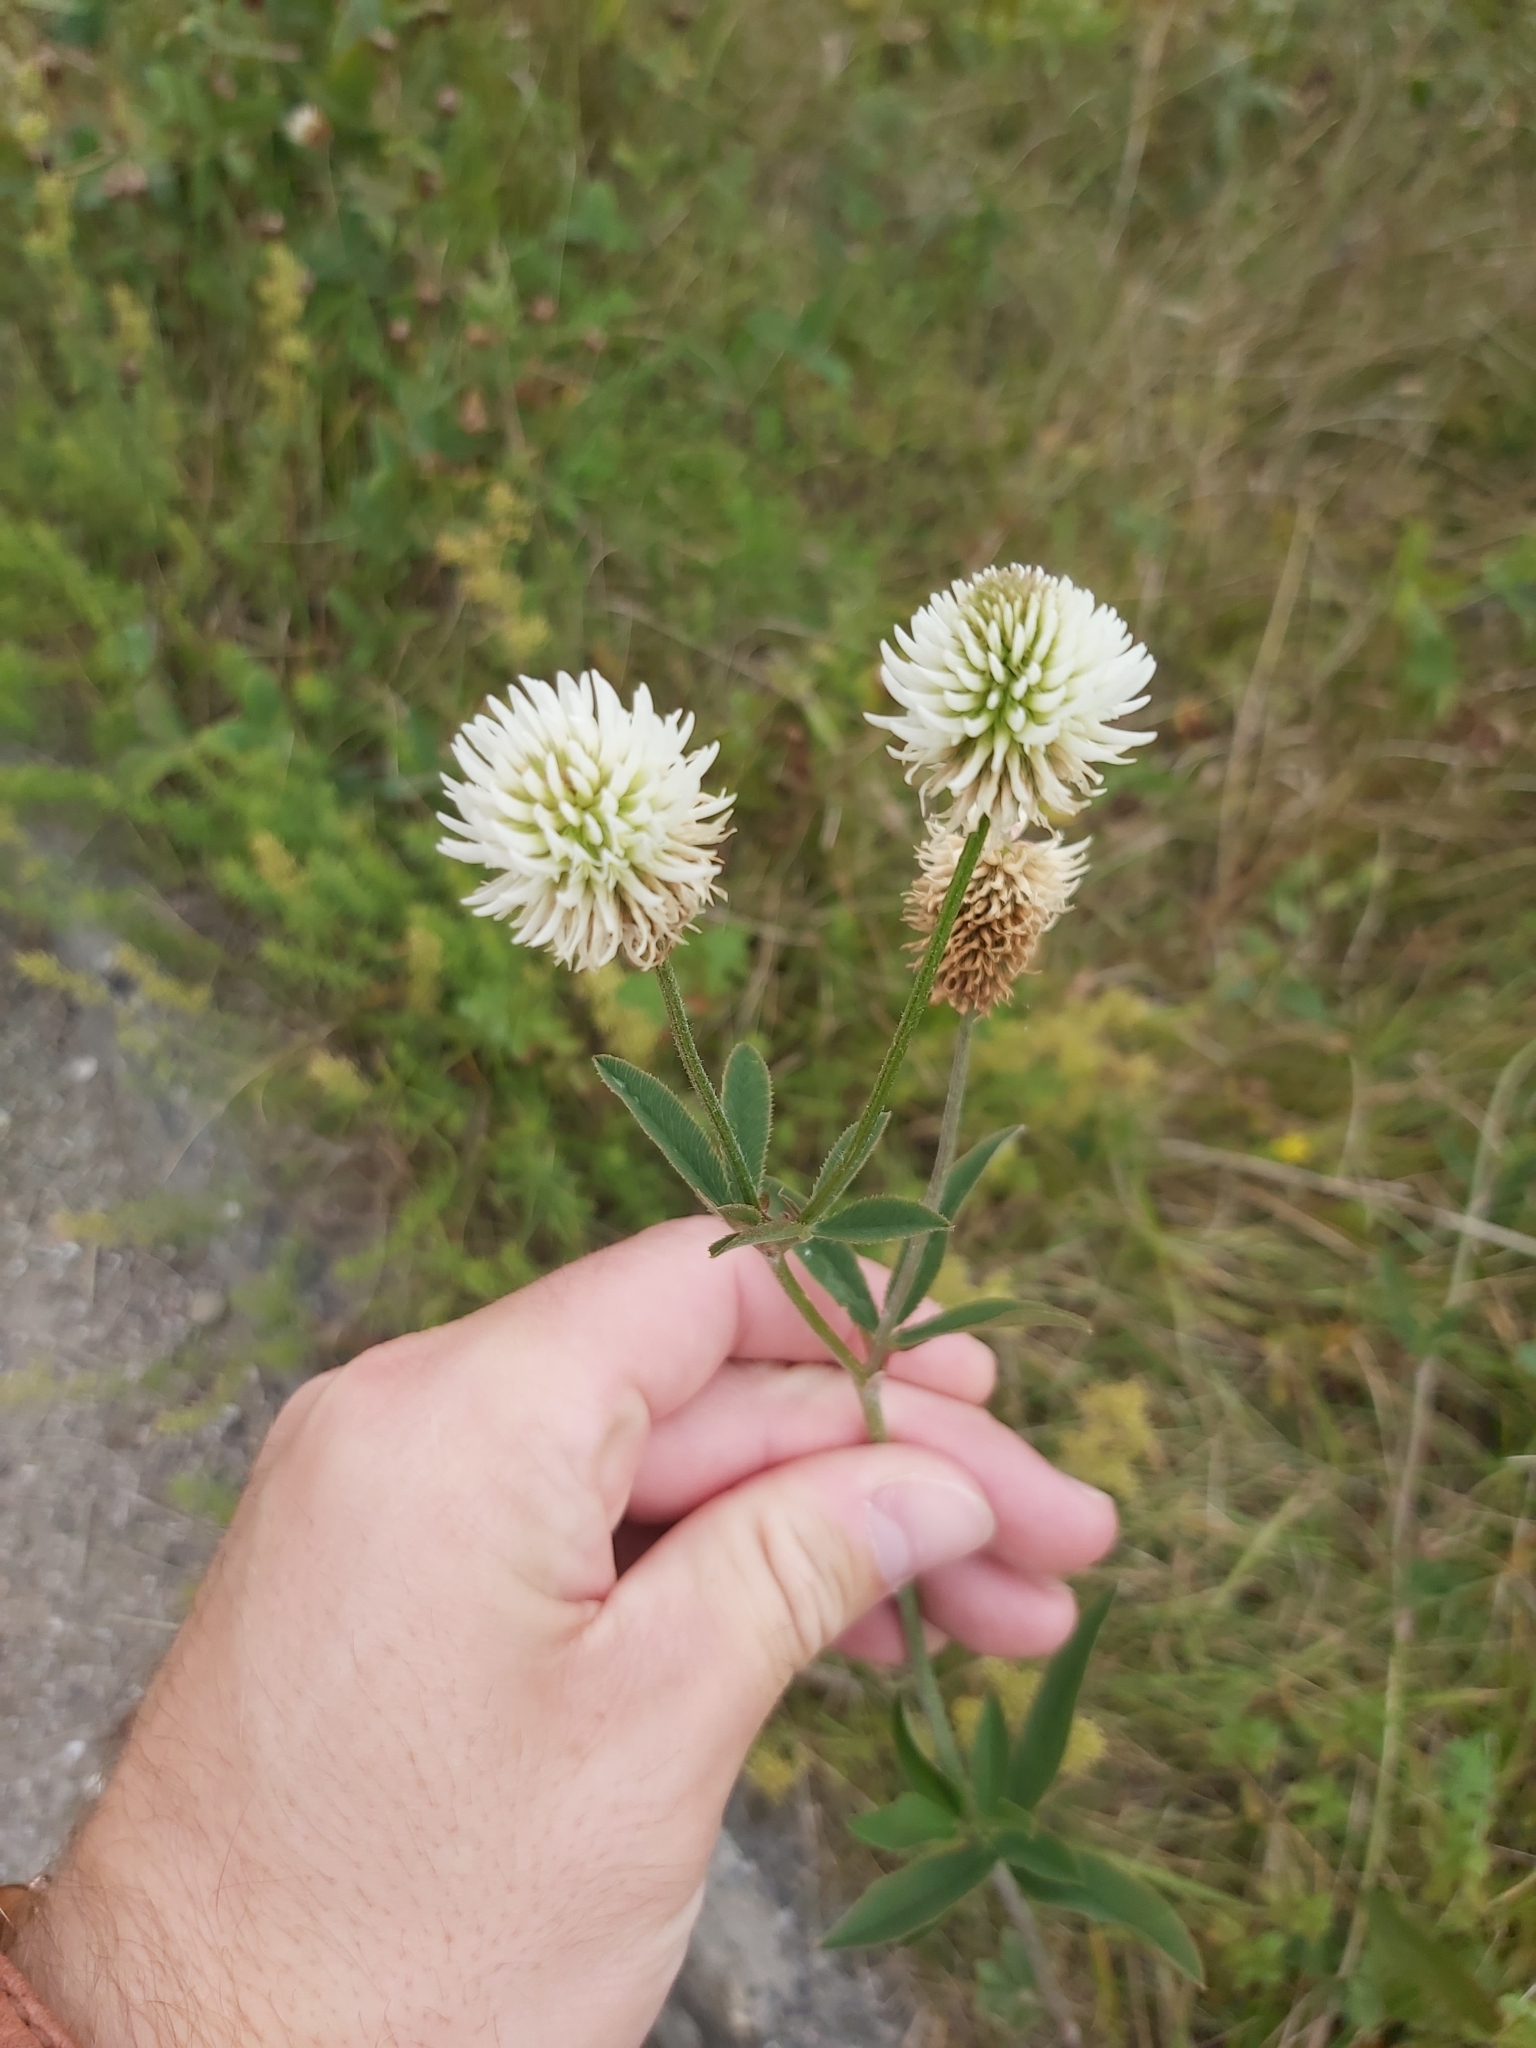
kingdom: Plantae
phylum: Tracheophyta
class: Magnoliopsida
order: Fabales
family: Fabaceae
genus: Trifolium
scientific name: Trifolium montanum
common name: Mountain clover
